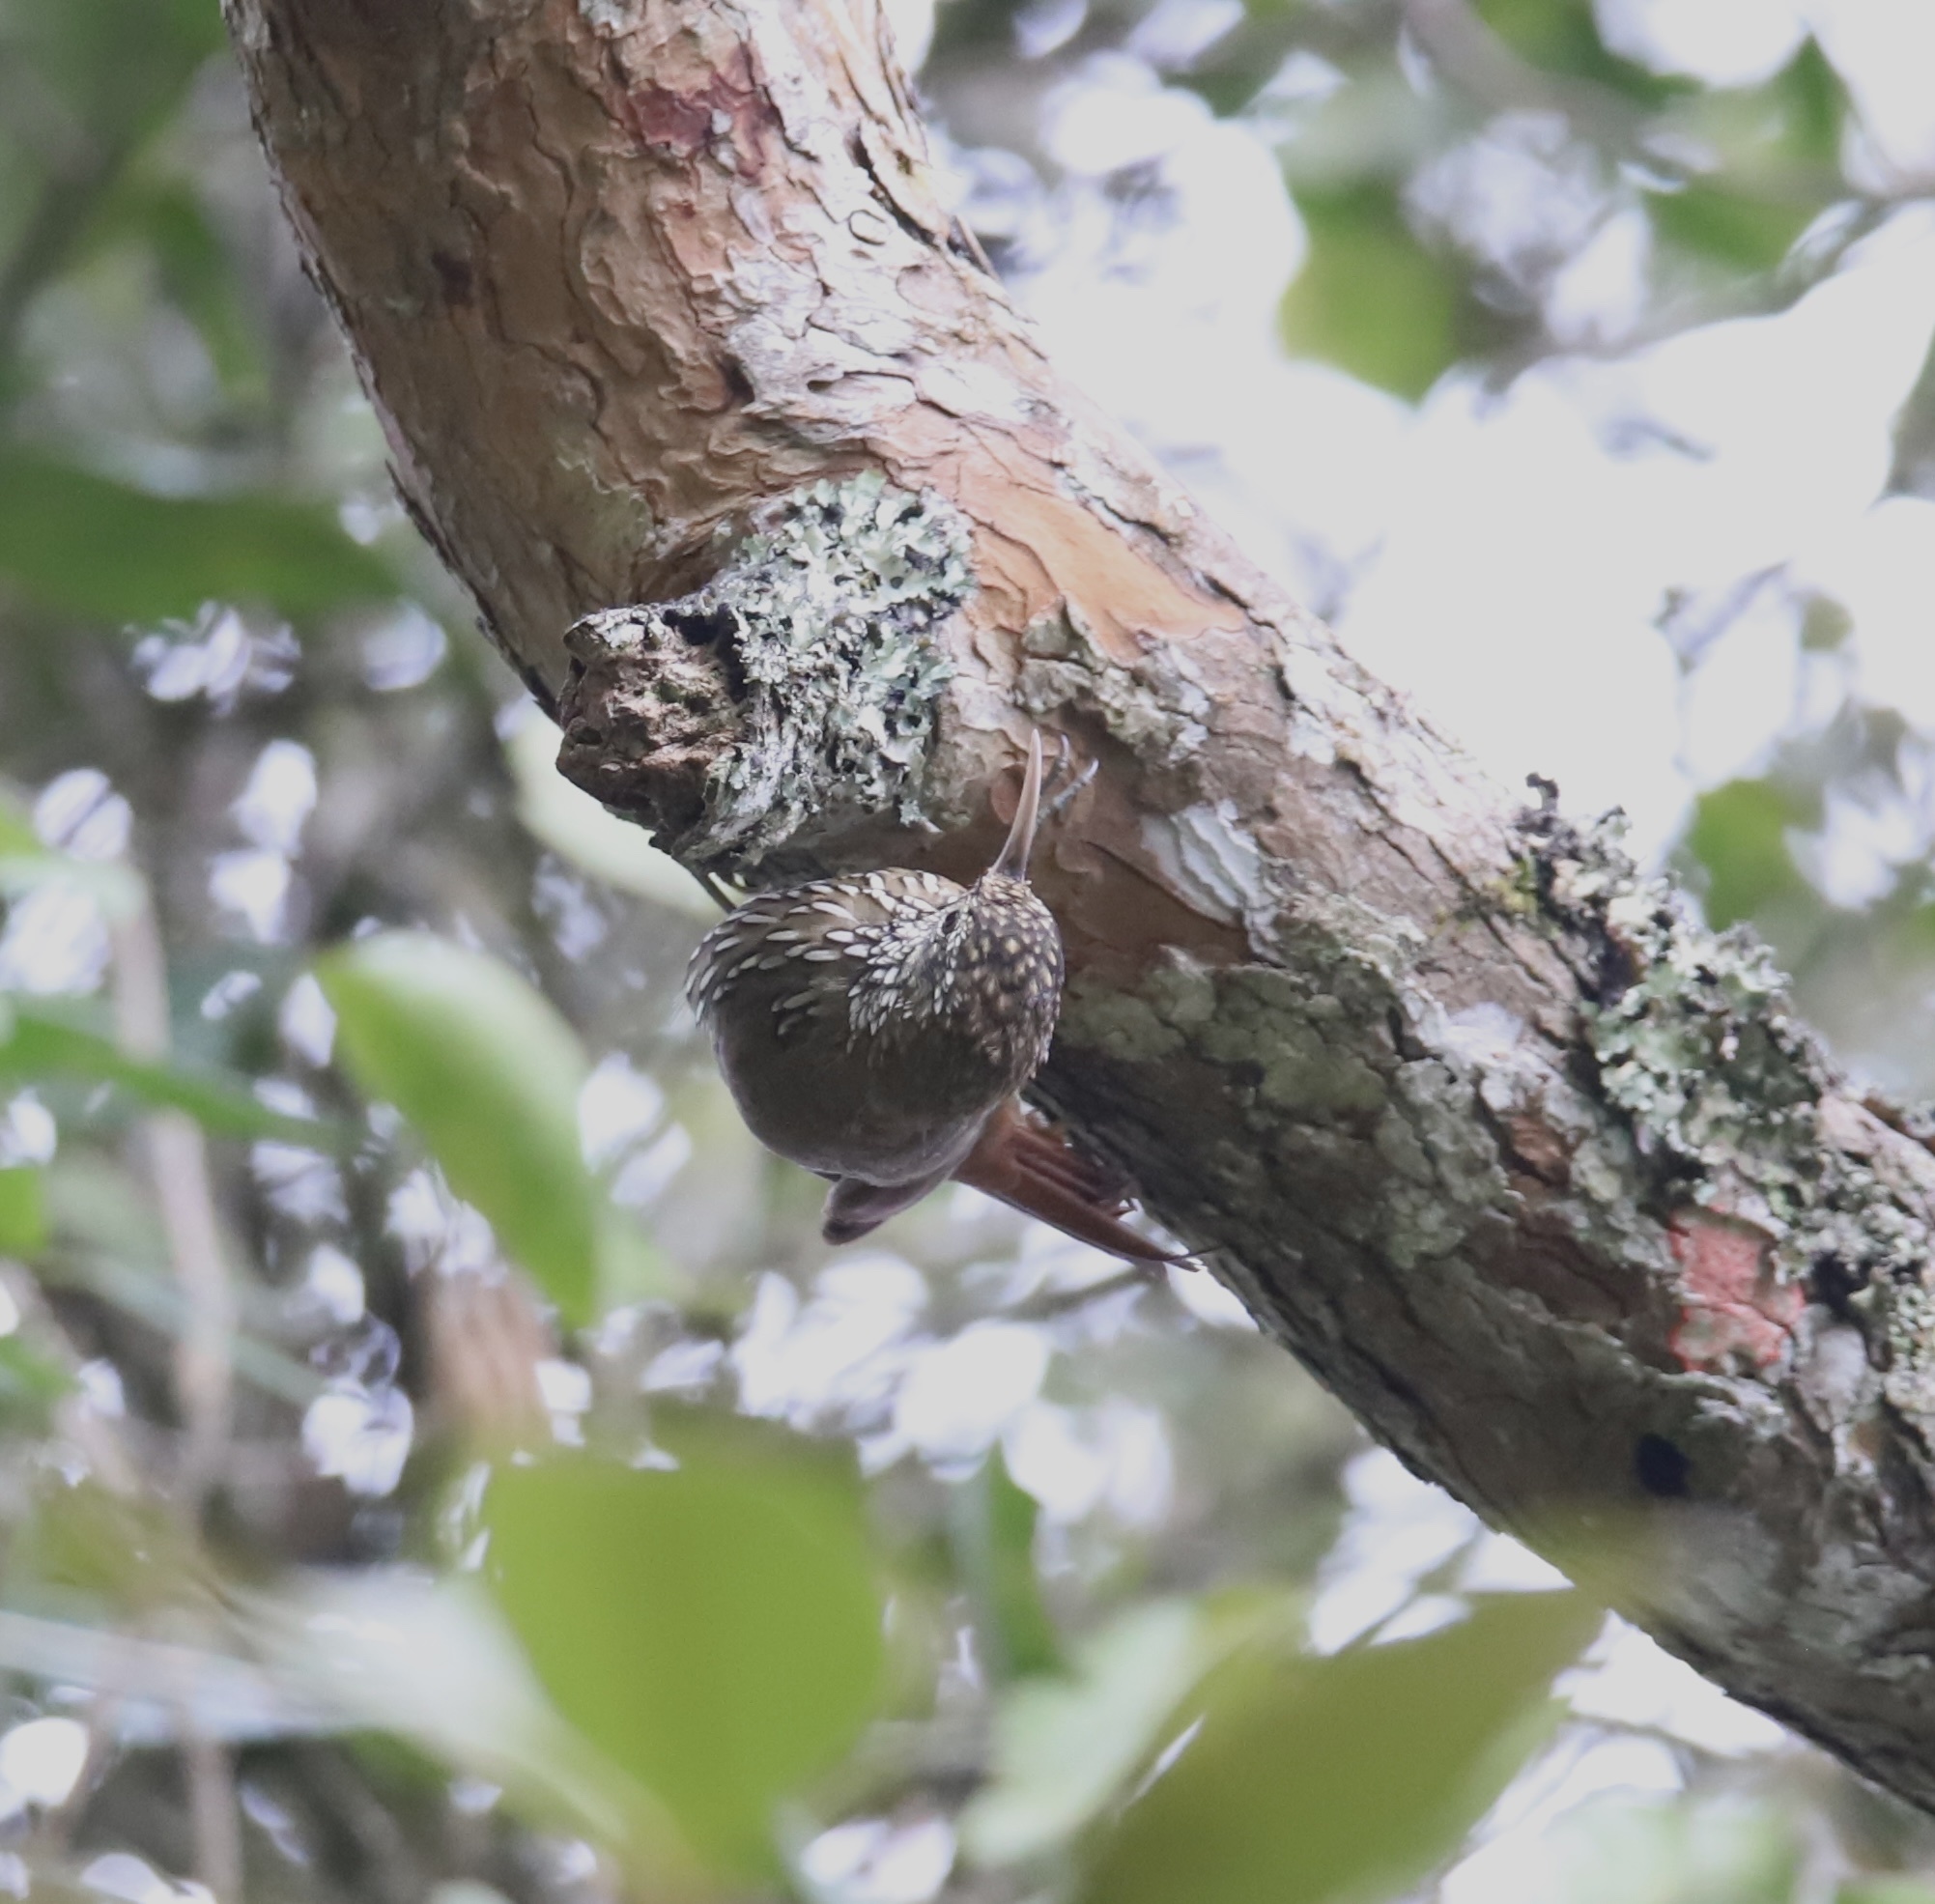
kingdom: Animalia
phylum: Chordata
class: Aves
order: Passeriformes
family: Furnariidae
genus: Lepidocolaptes
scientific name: Lepidocolaptes lacrymiger
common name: Montane woodcreeper
